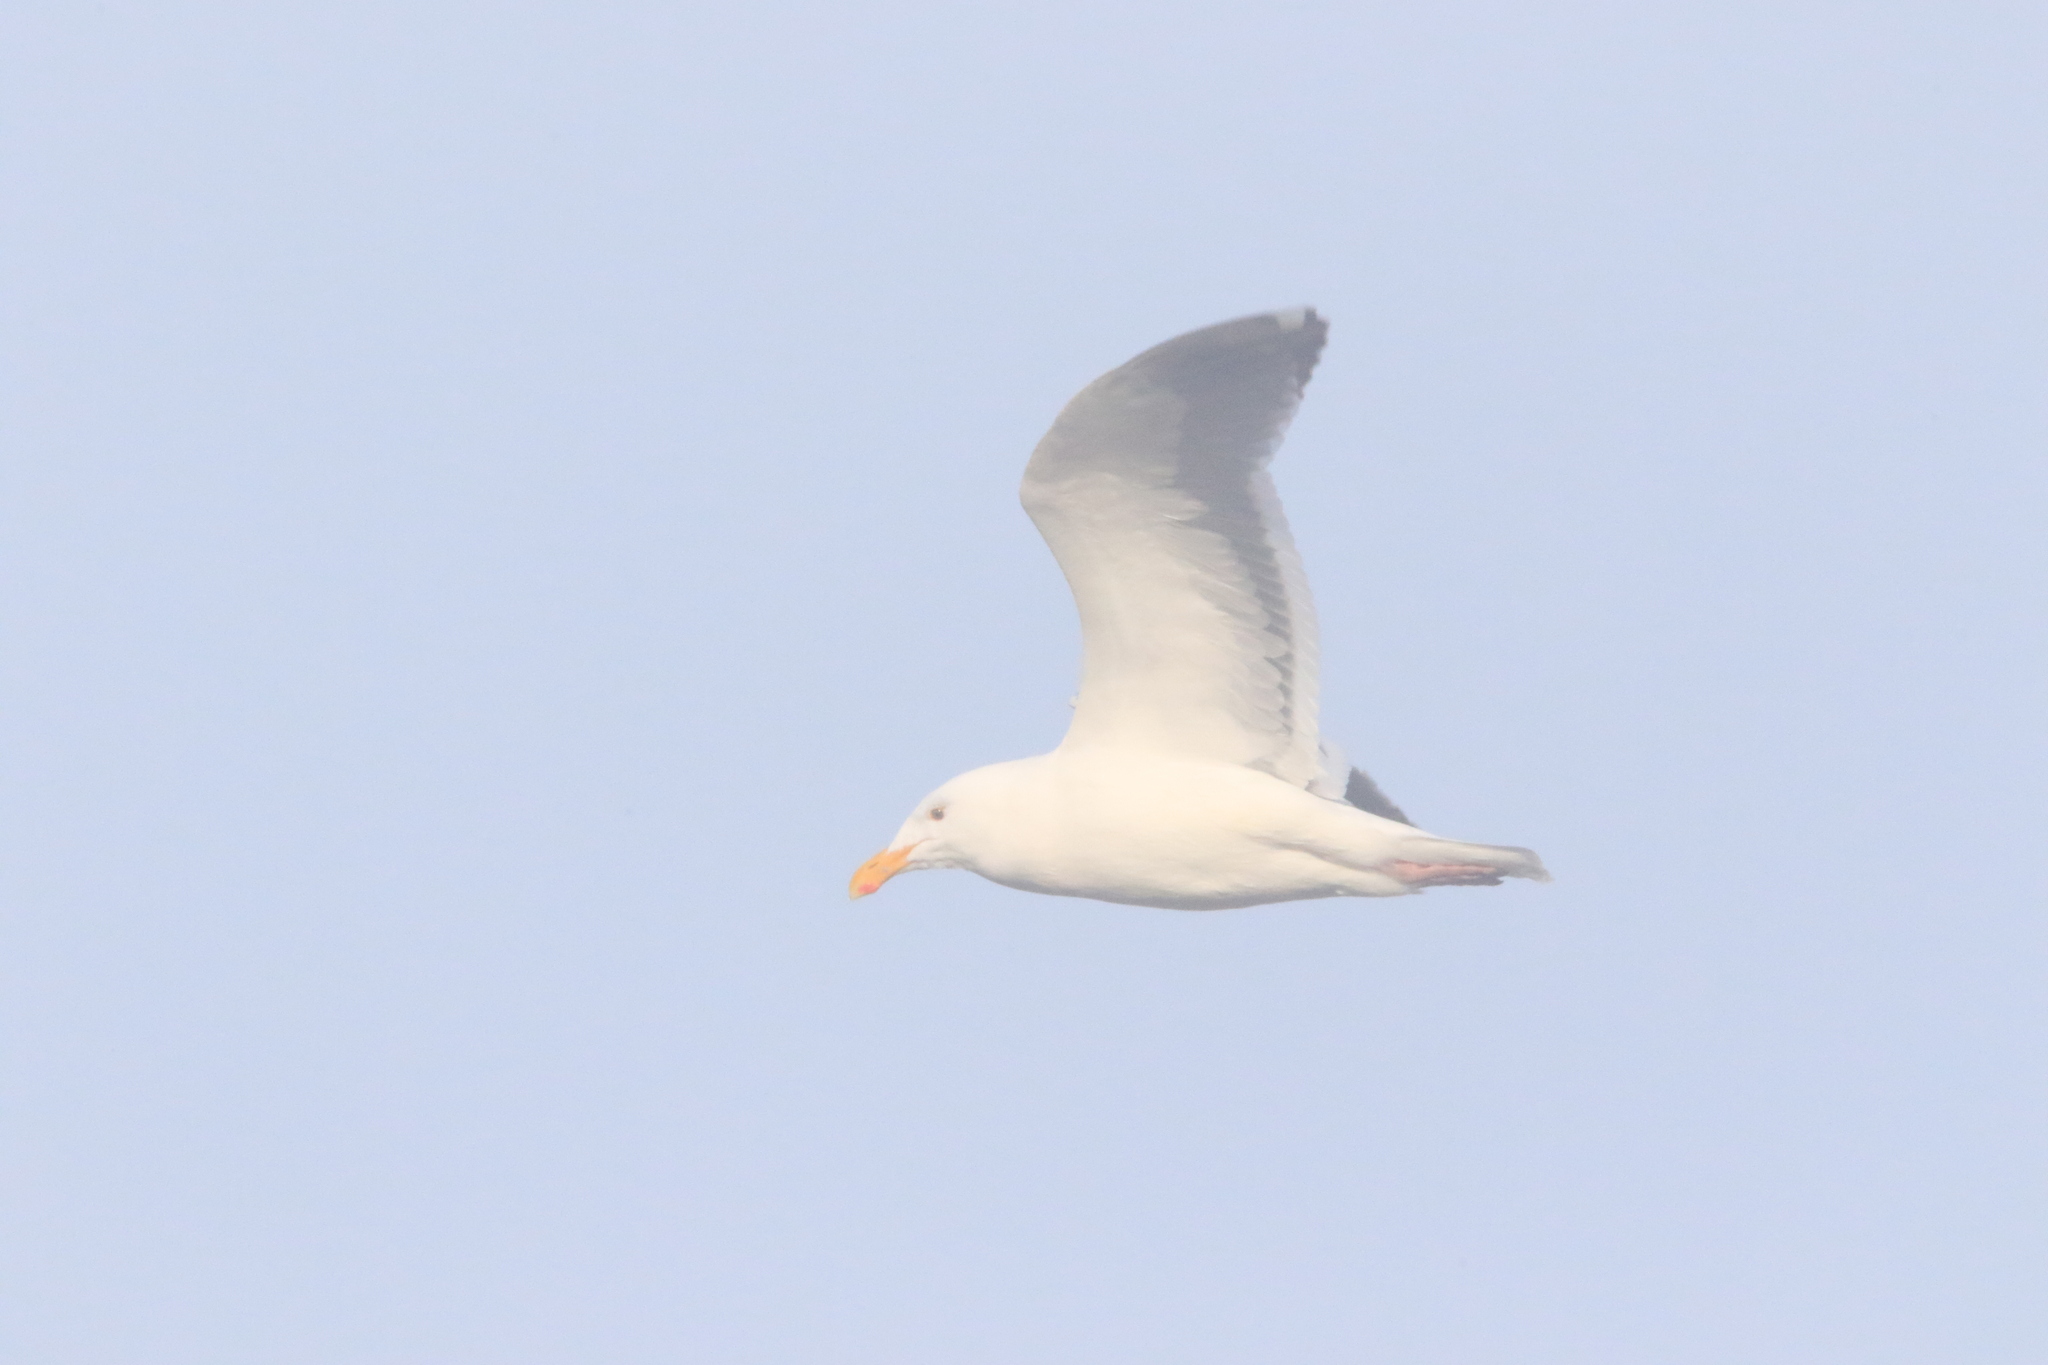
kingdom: Animalia
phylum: Chordata
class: Aves
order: Charadriiformes
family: Laridae
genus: Larus
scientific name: Larus occidentalis
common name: Western gull
